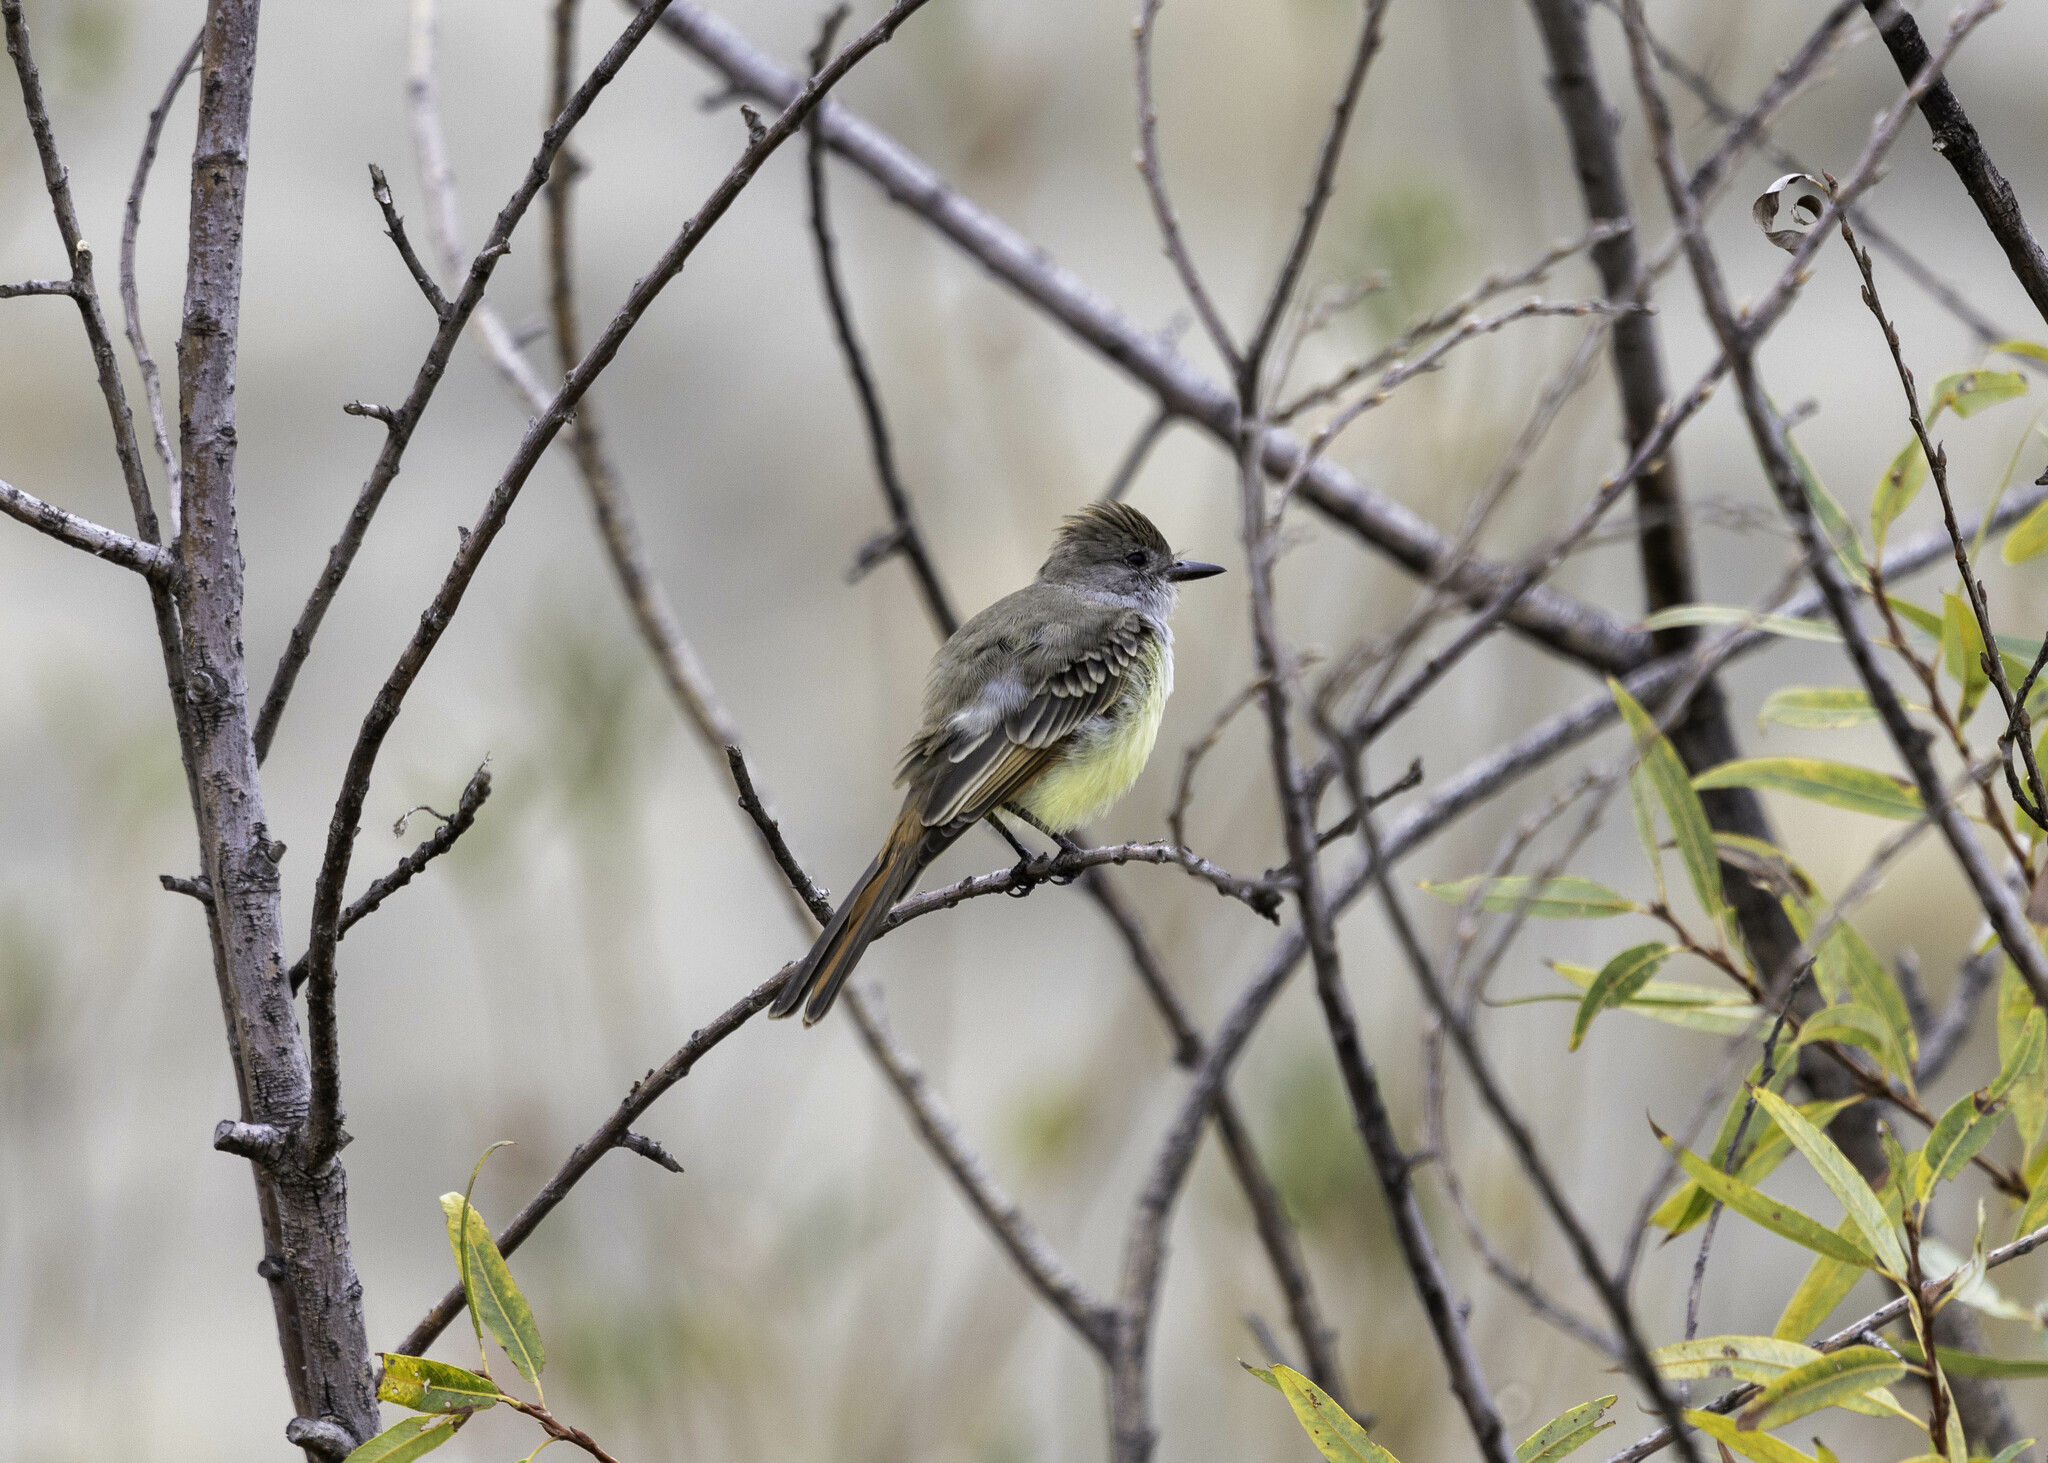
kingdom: Animalia
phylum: Chordata
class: Aves
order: Passeriformes
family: Tyrannidae
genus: Myiarchus
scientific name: Myiarchus cinerascens
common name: Ash-throated flycatcher
